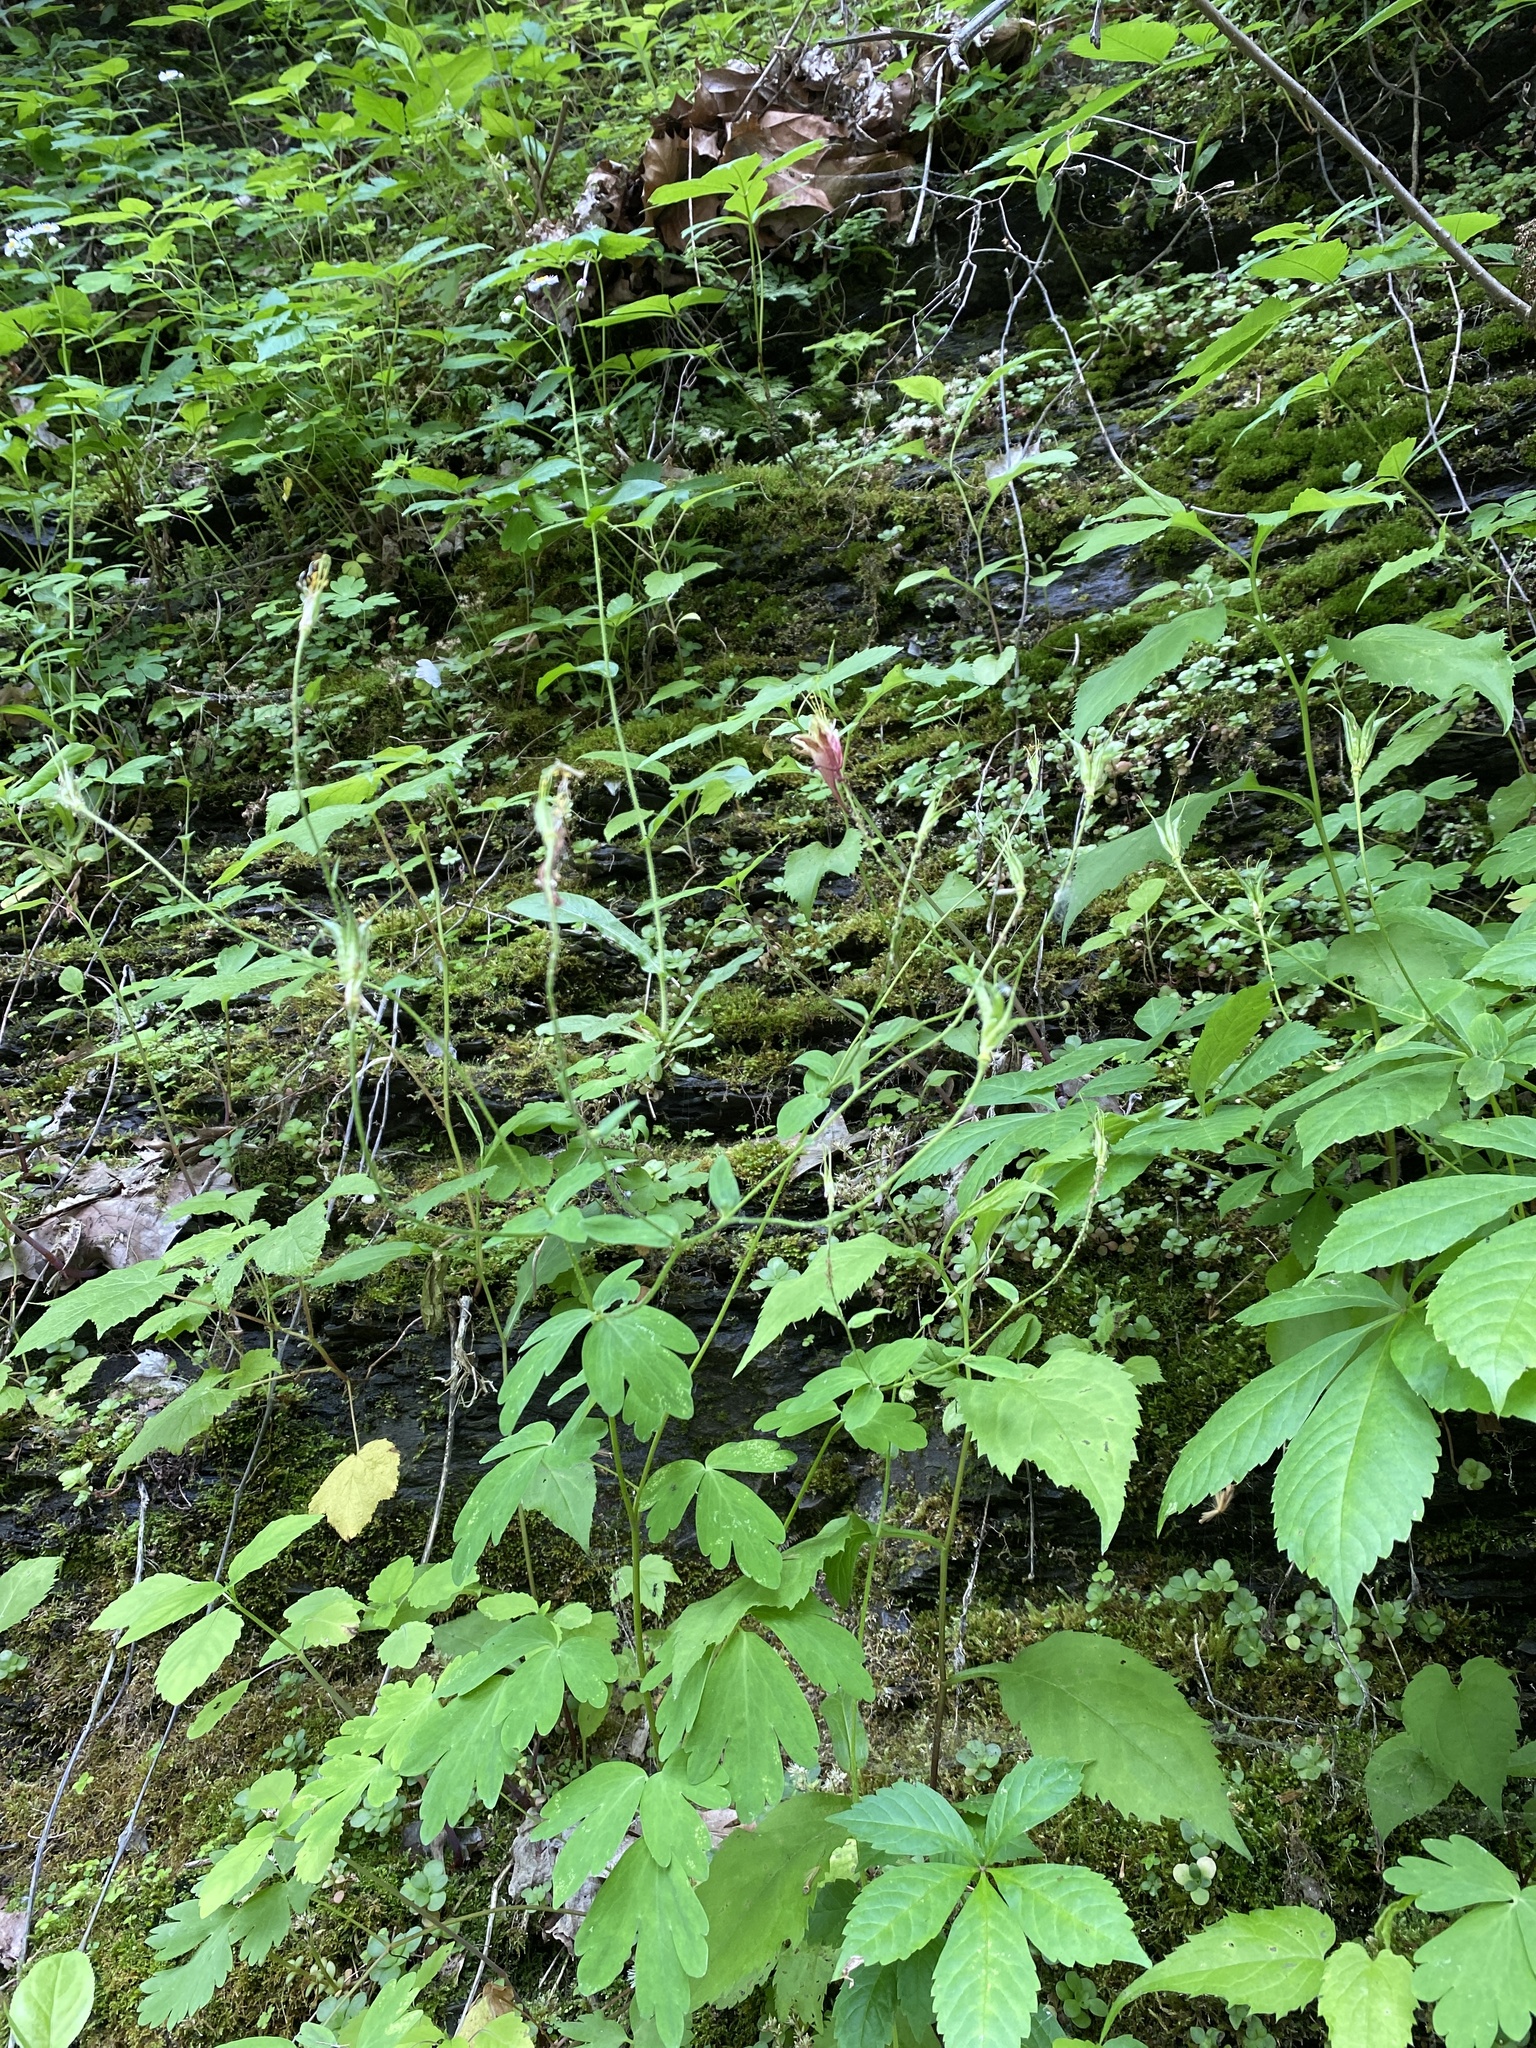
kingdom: Plantae
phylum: Tracheophyta
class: Magnoliopsida
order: Ranunculales
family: Ranunculaceae
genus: Aquilegia
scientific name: Aquilegia canadensis
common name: American columbine
